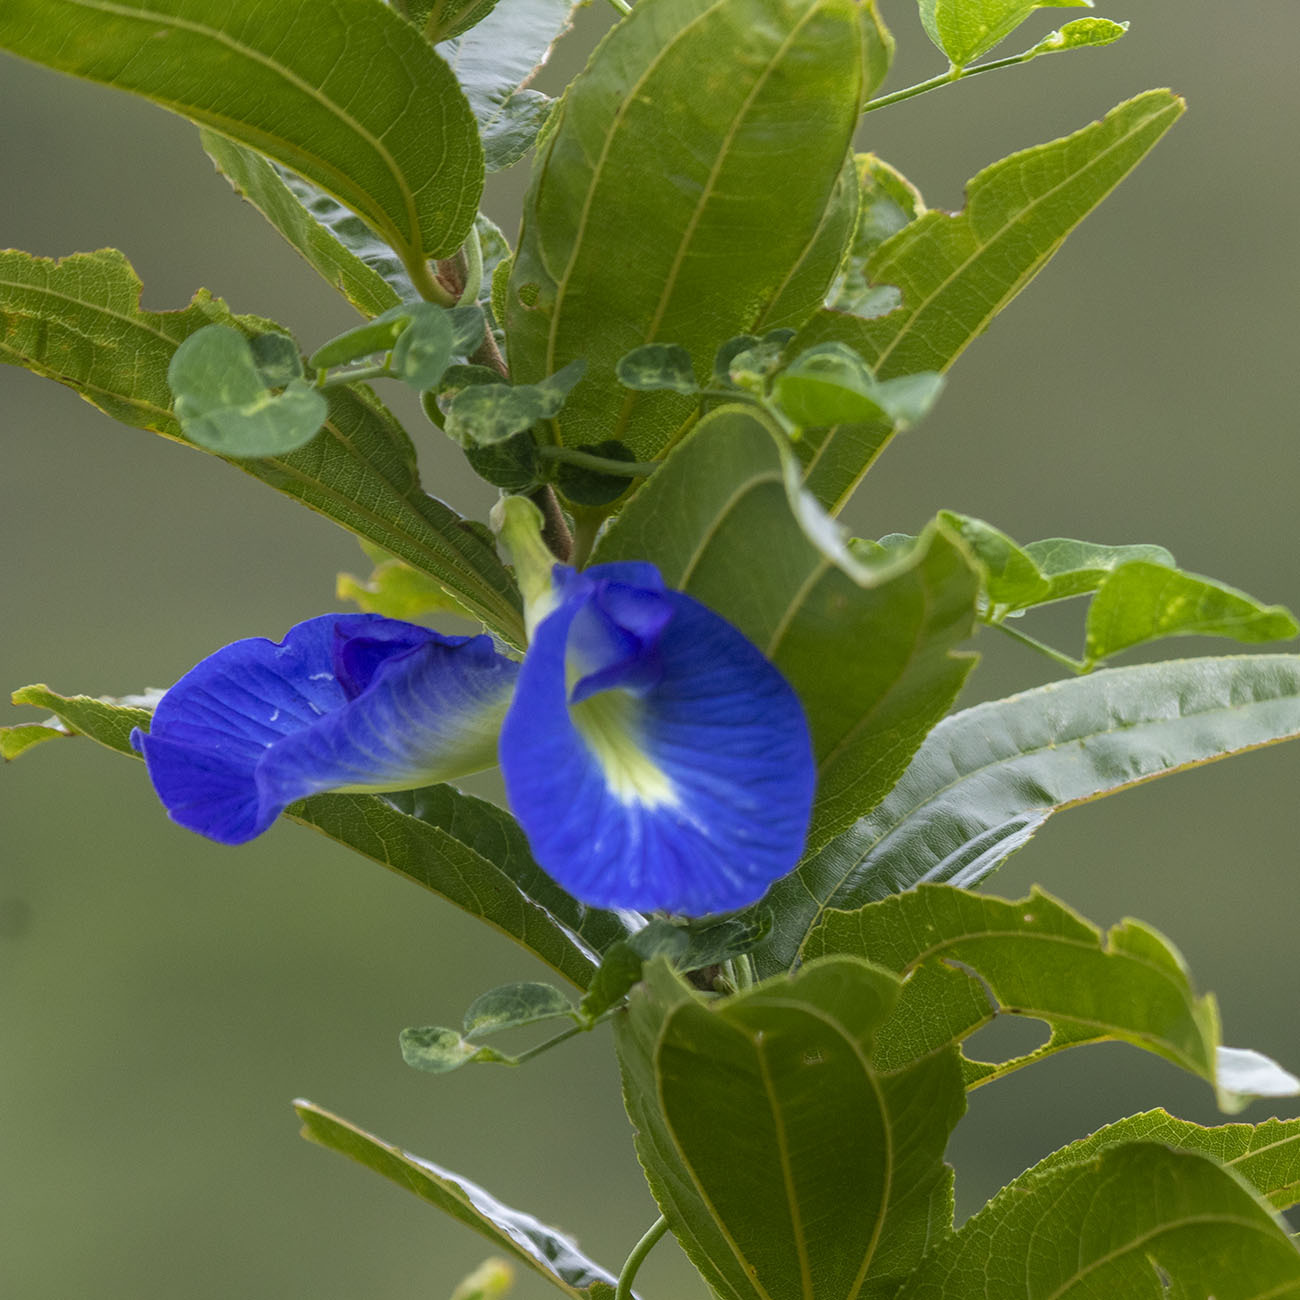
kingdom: Plantae
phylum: Tracheophyta
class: Magnoliopsida
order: Fabales
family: Fabaceae
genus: Clitoria
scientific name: Clitoria ternatea
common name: Asian pigeonwings
